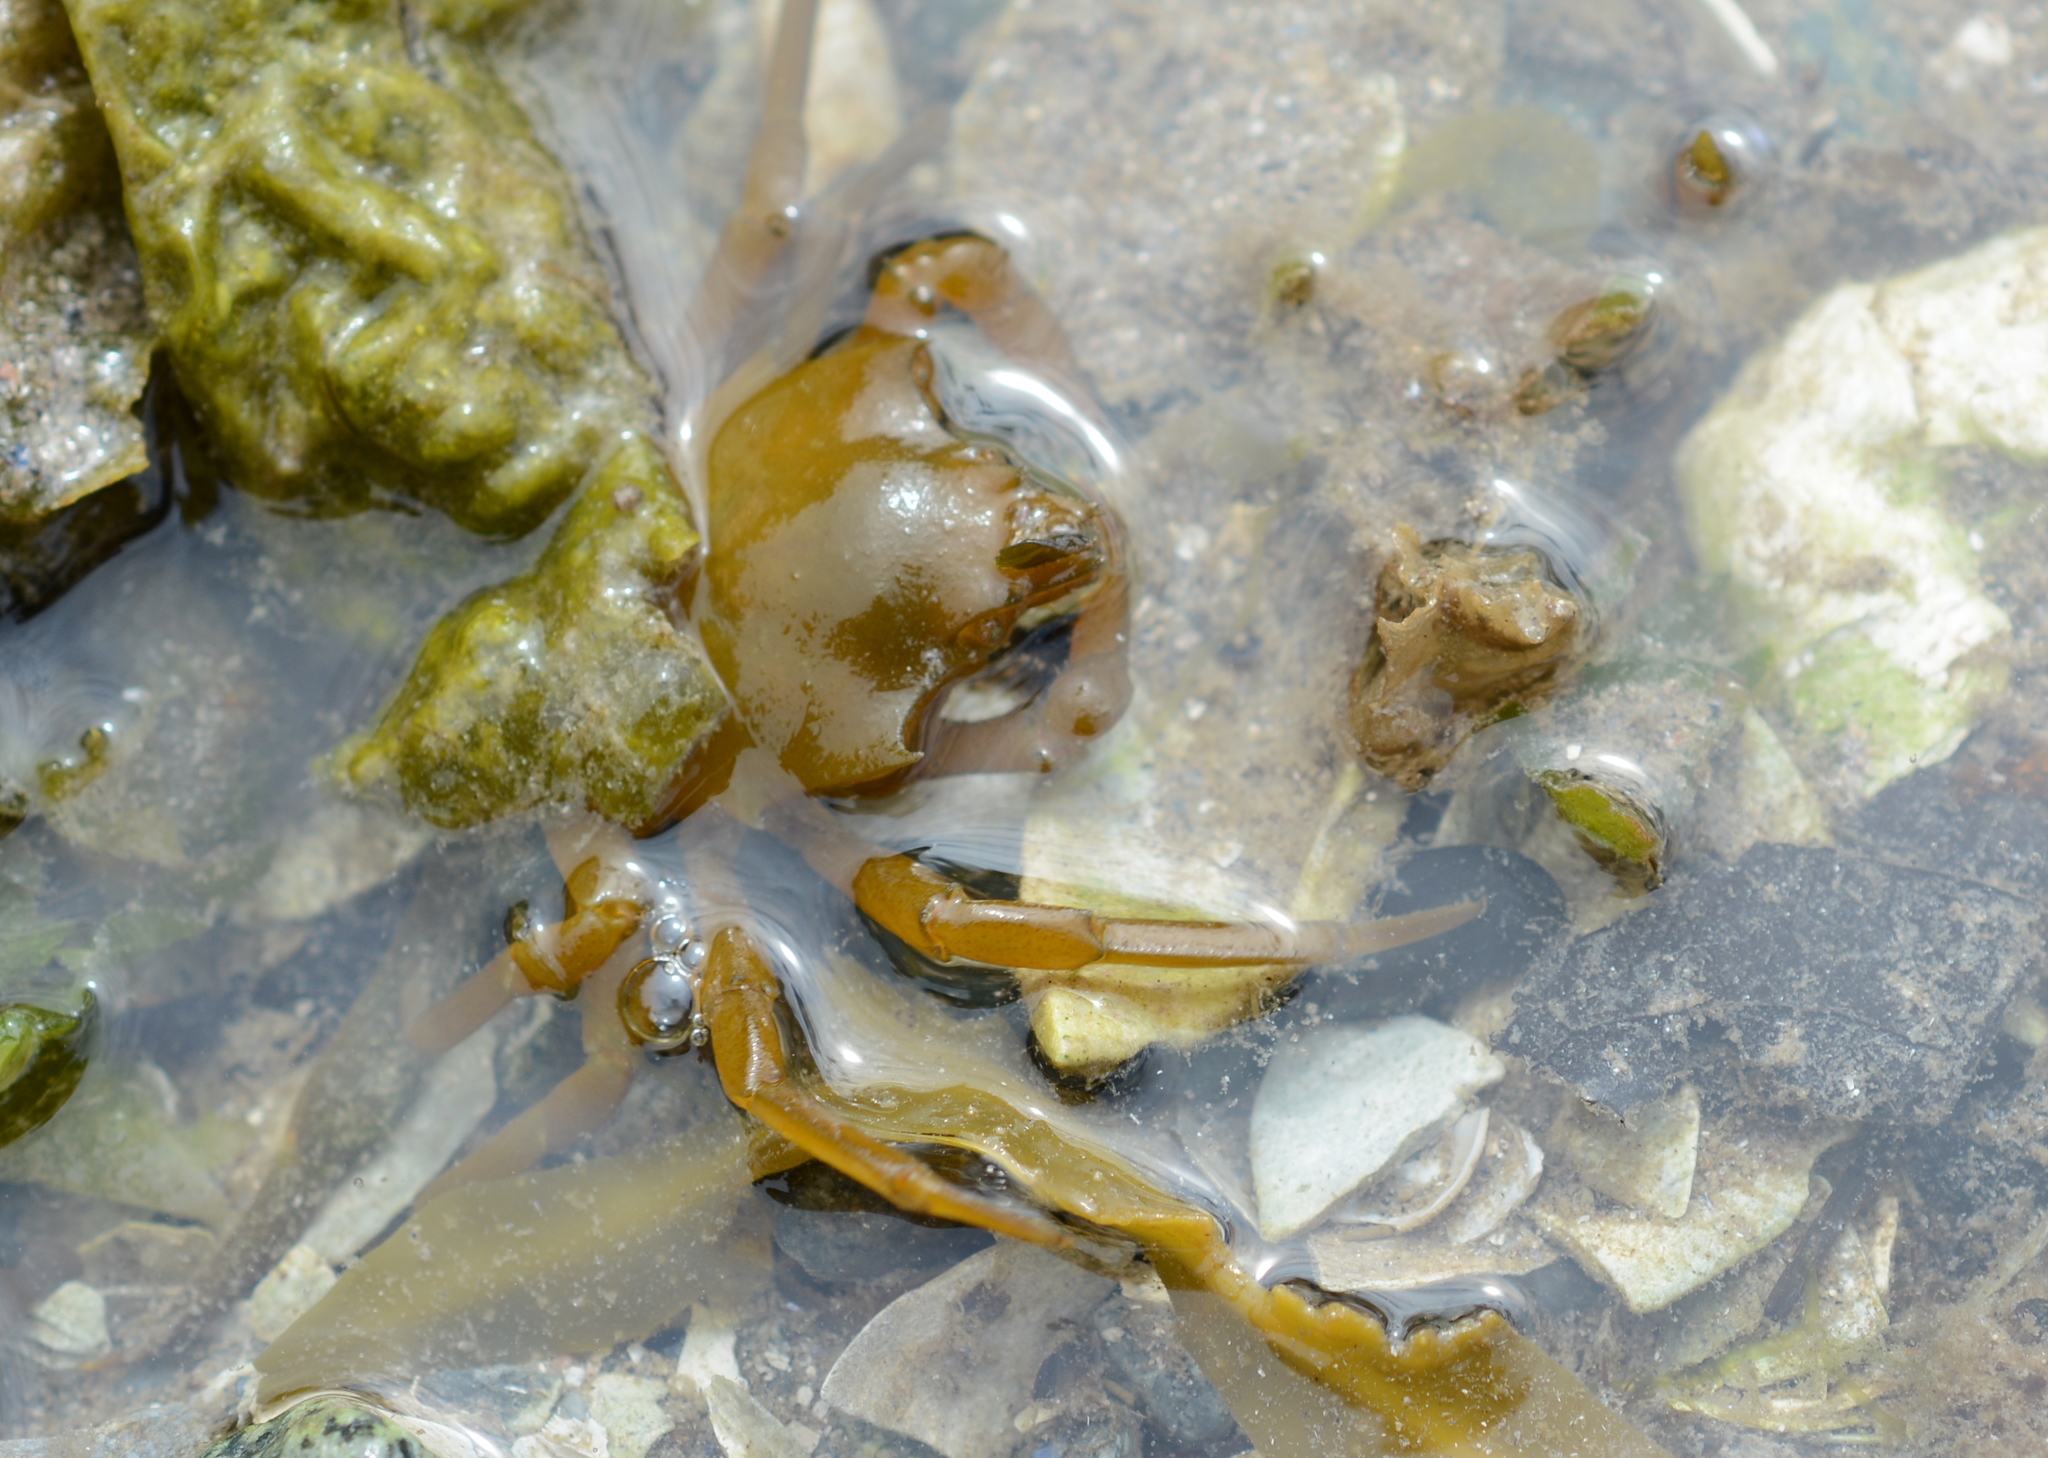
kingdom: Animalia
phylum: Arthropoda
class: Malacostraca
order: Decapoda
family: Epialtidae
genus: Pugettia
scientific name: Pugettia producta
